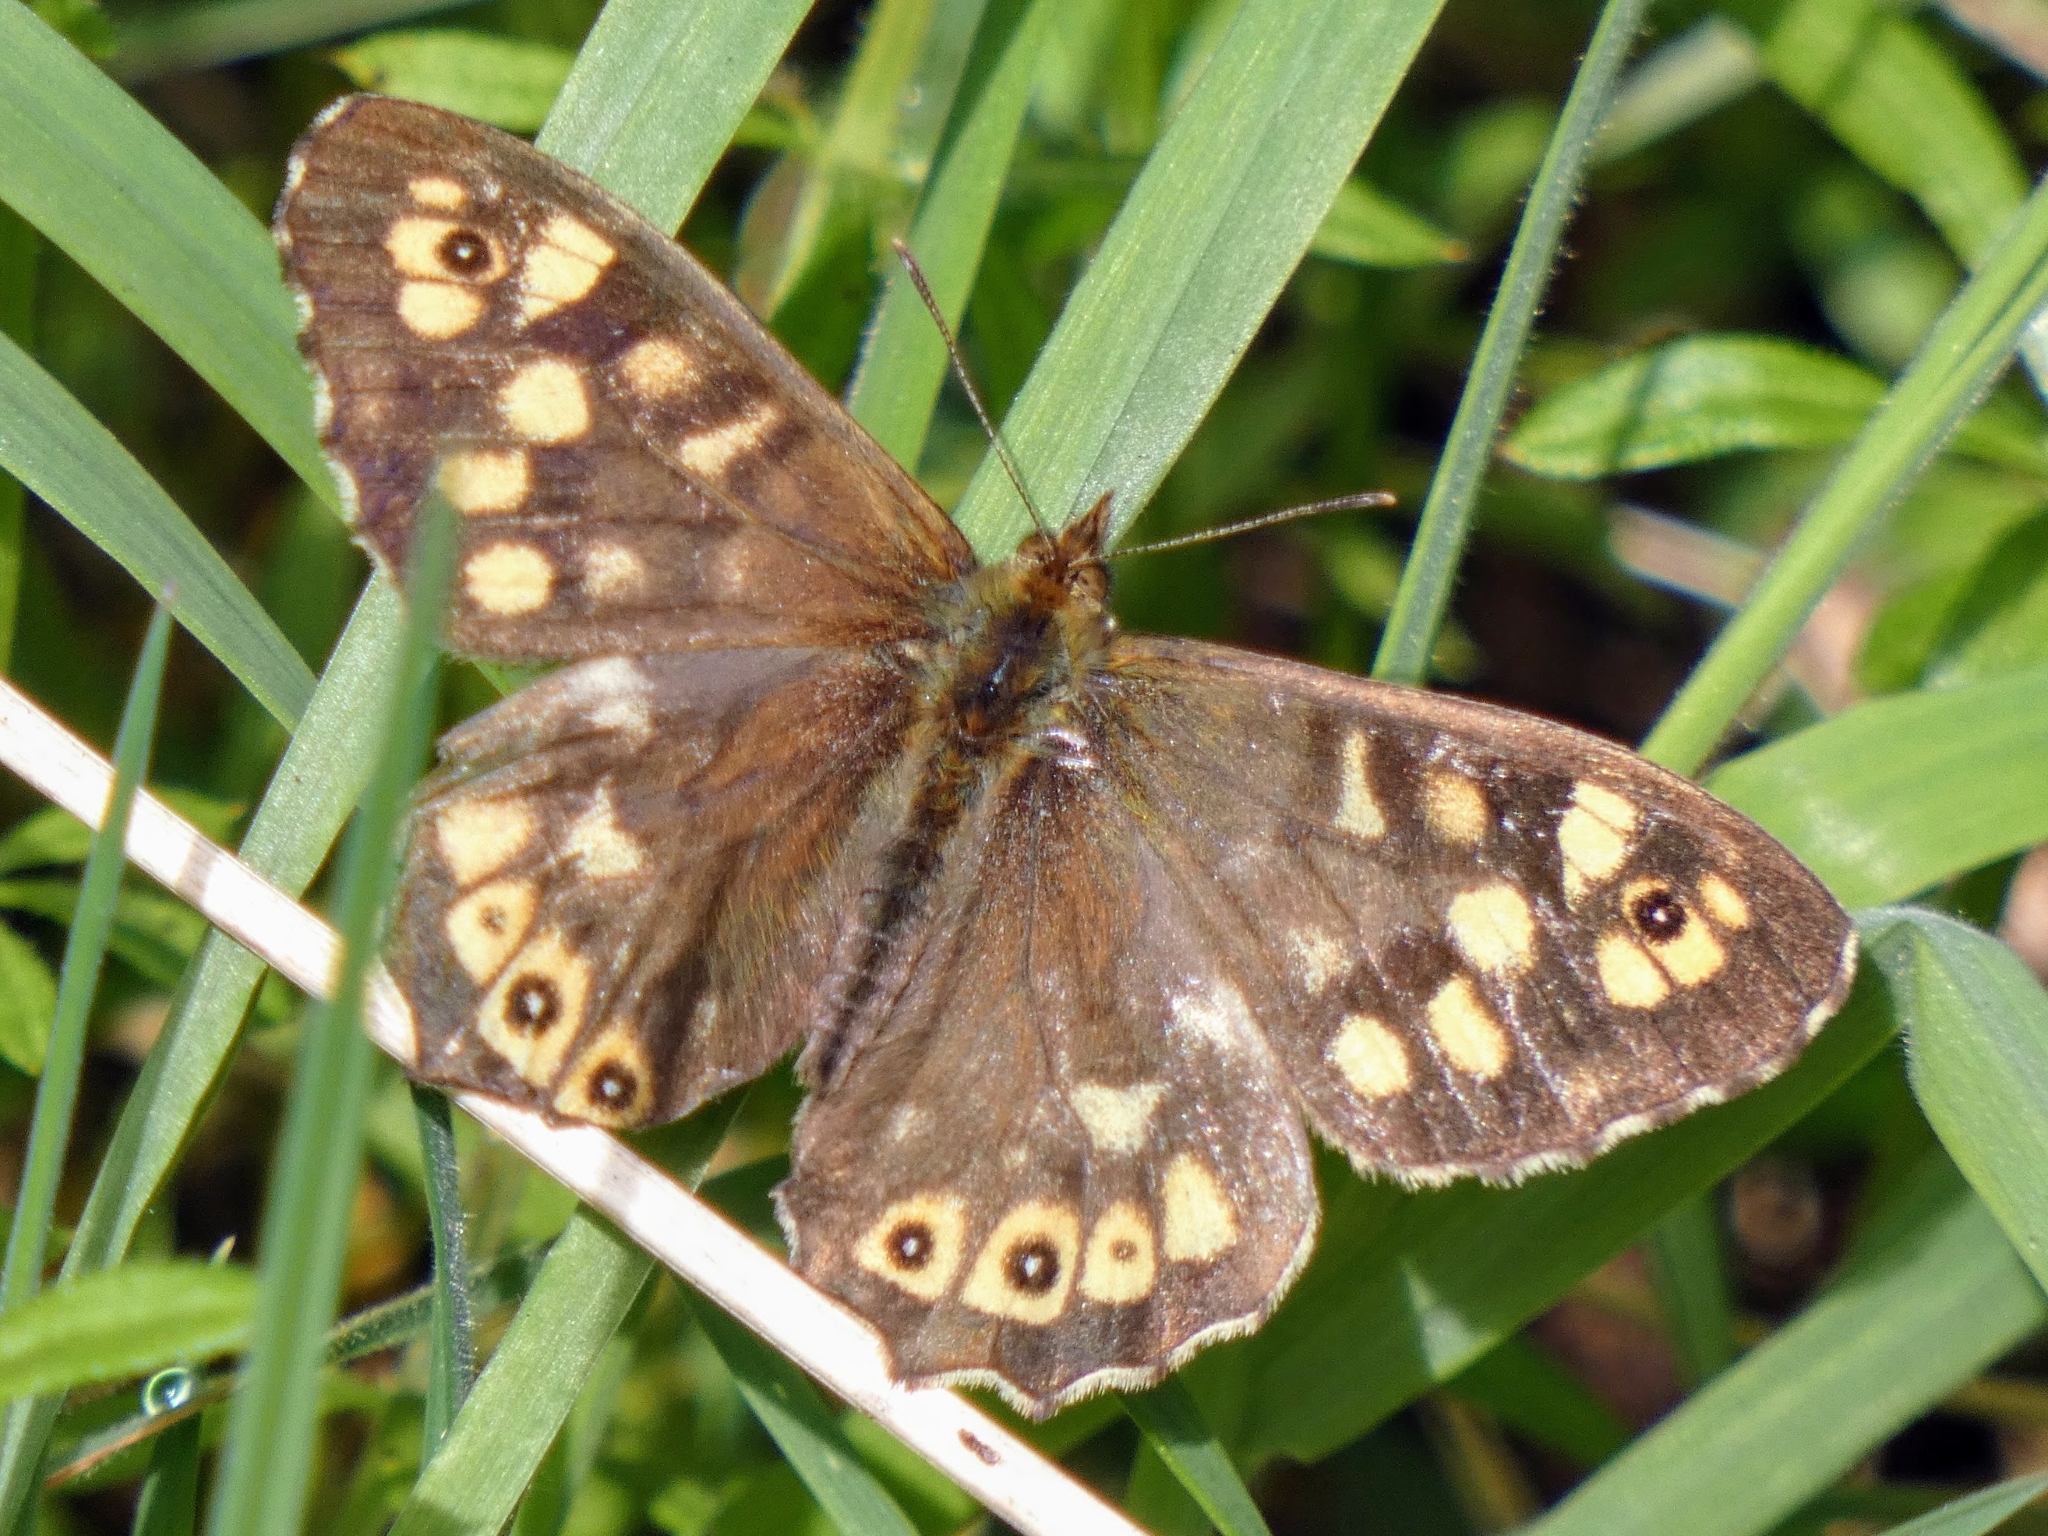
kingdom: Animalia
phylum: Arthropoda
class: Insecta
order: Lepidoptera
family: Nymphalidae
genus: Pararge
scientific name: Pararge aegeria
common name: Speckled wood
